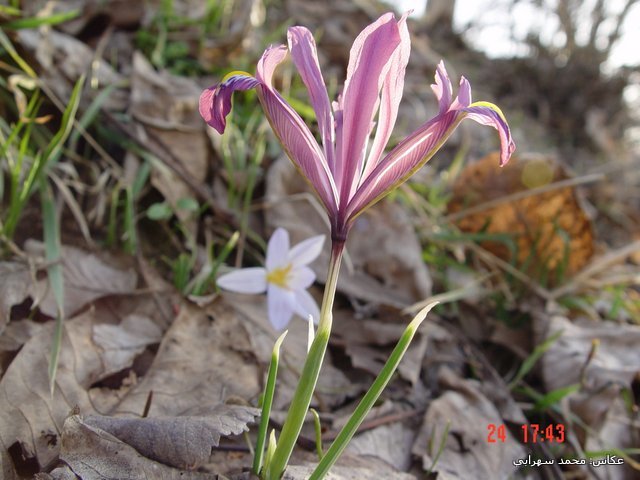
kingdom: Plantae
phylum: Tracheophyta
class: Liliopsida
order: Asparagales
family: Iridaceae
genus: Iris
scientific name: Iris reticulata
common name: Netted iris
